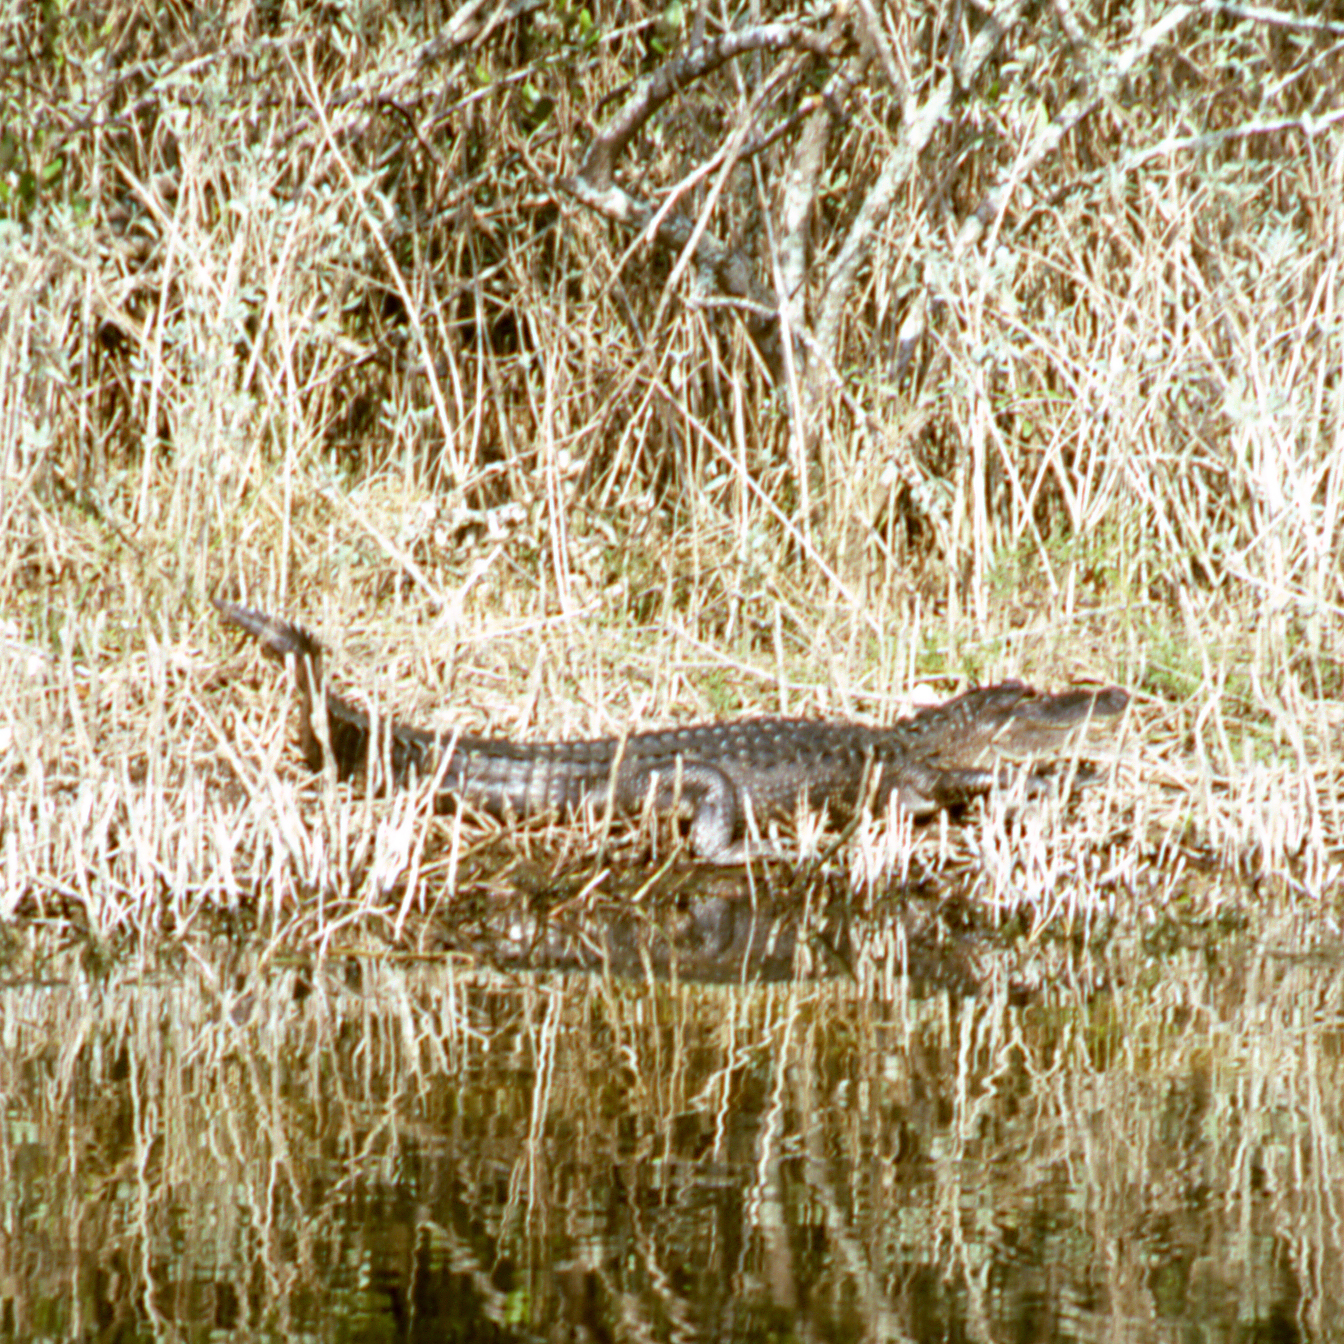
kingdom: Animalia
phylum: Chordata
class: Crocodylia
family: Alligatoridae
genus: Alligator
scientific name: Alligator mississippiensis
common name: American alligator
